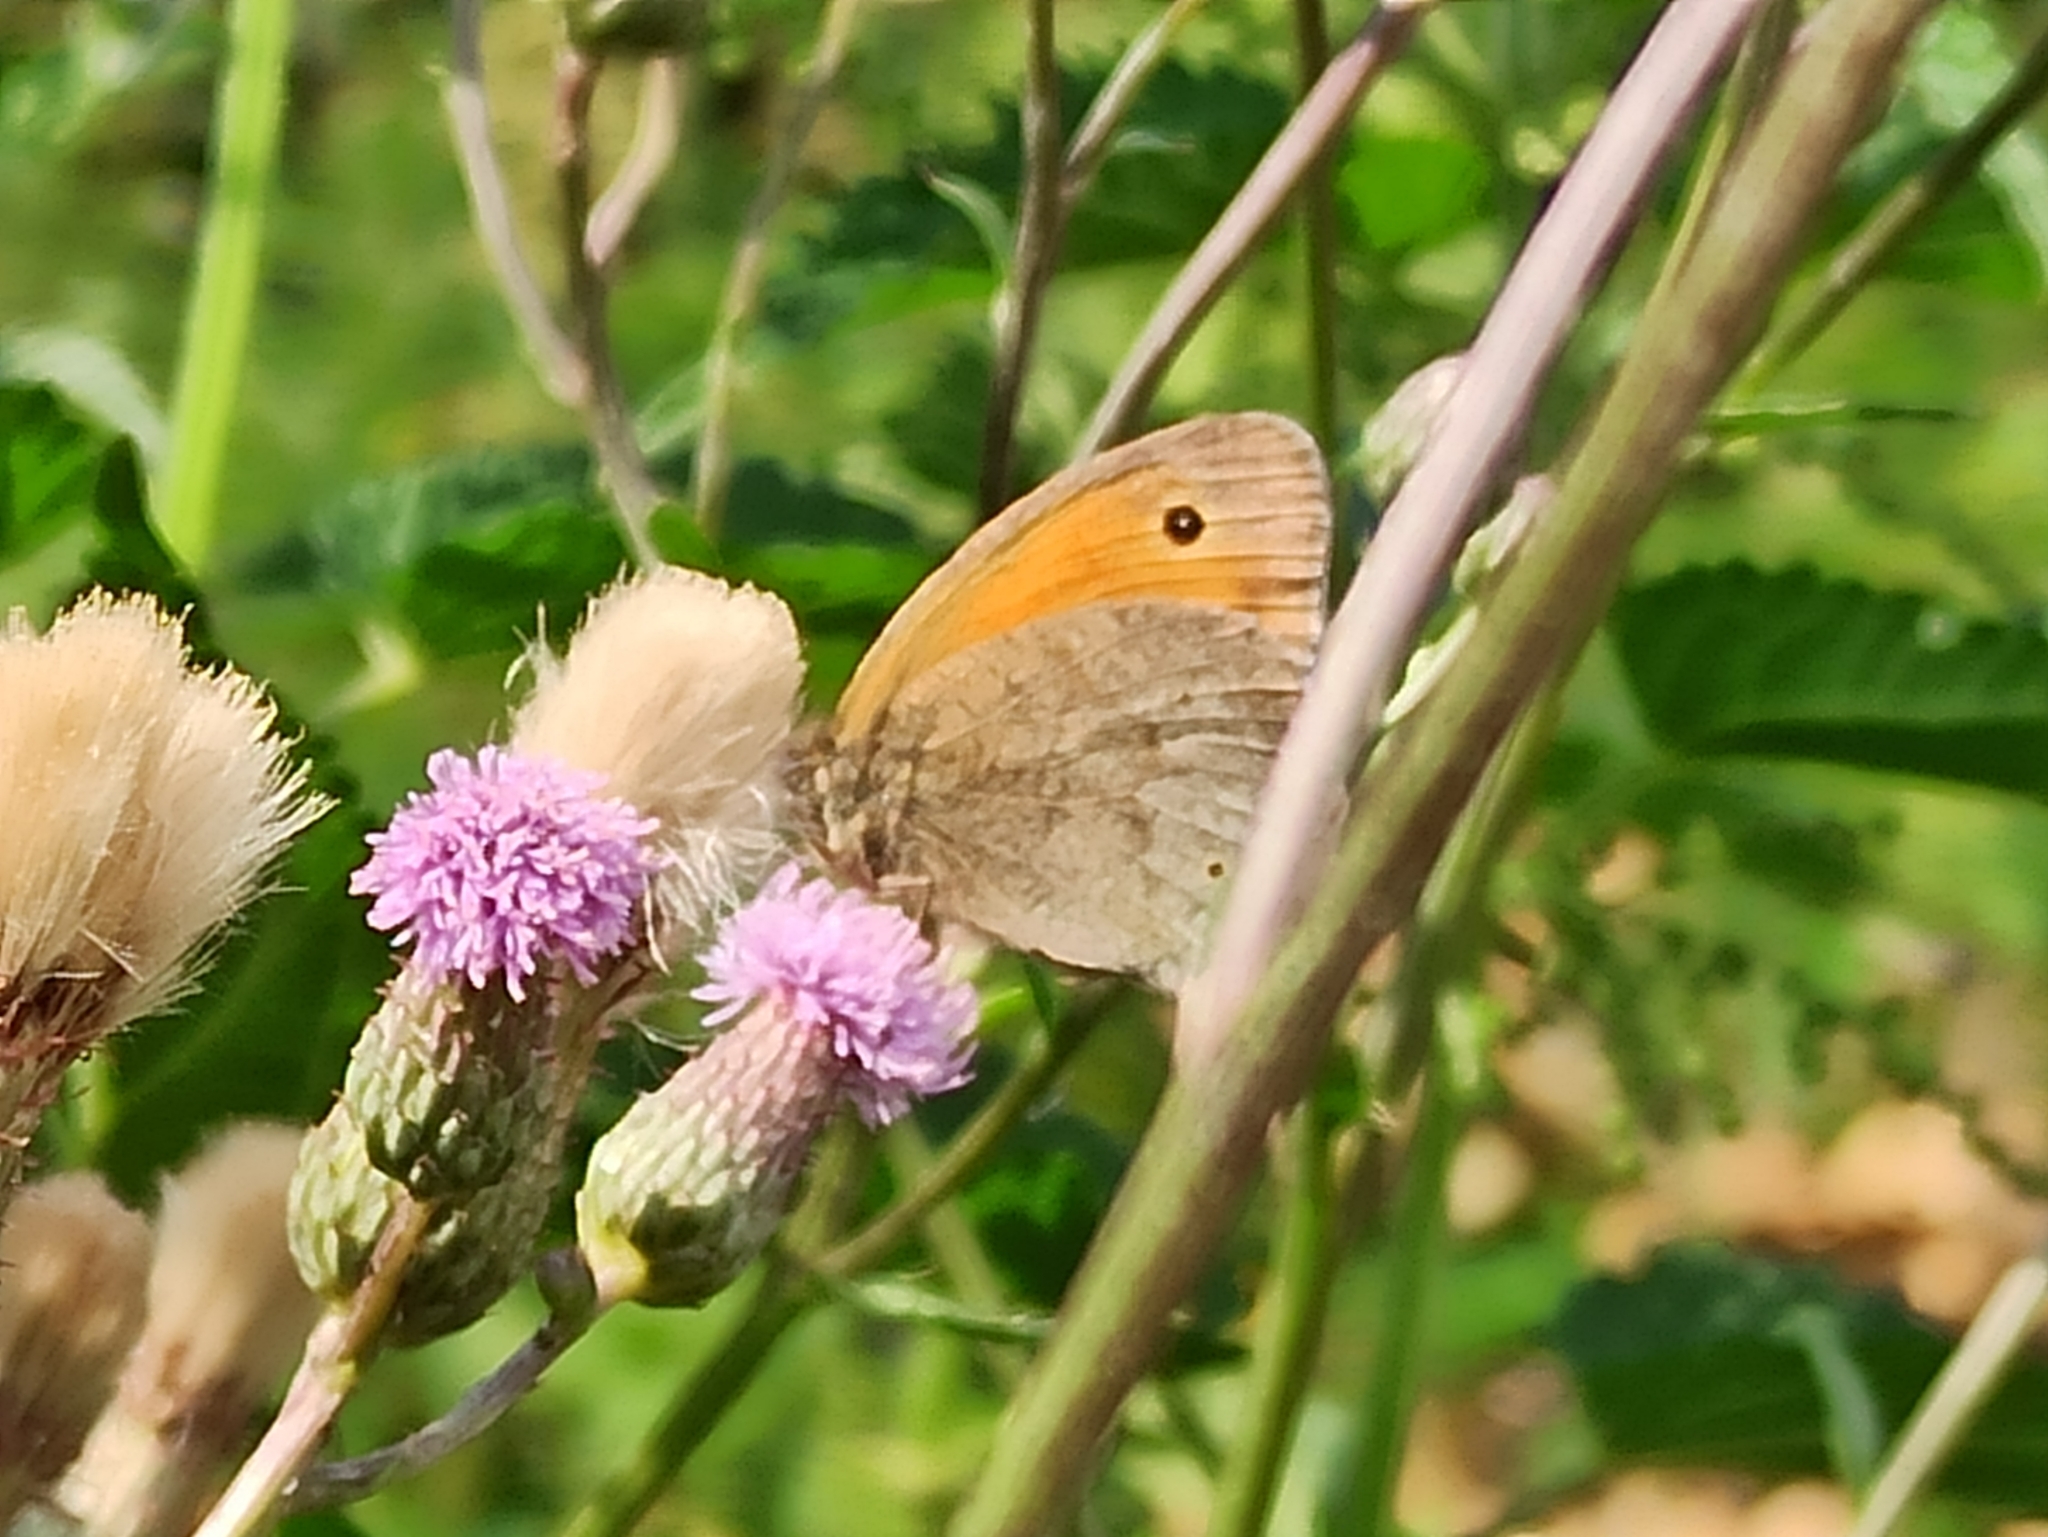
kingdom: Animalia
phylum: Arthropoda
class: Insecta
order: Lepidoptera
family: Nymphalidae
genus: Maniola
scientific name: Maniola jurtina
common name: Meadow brown
